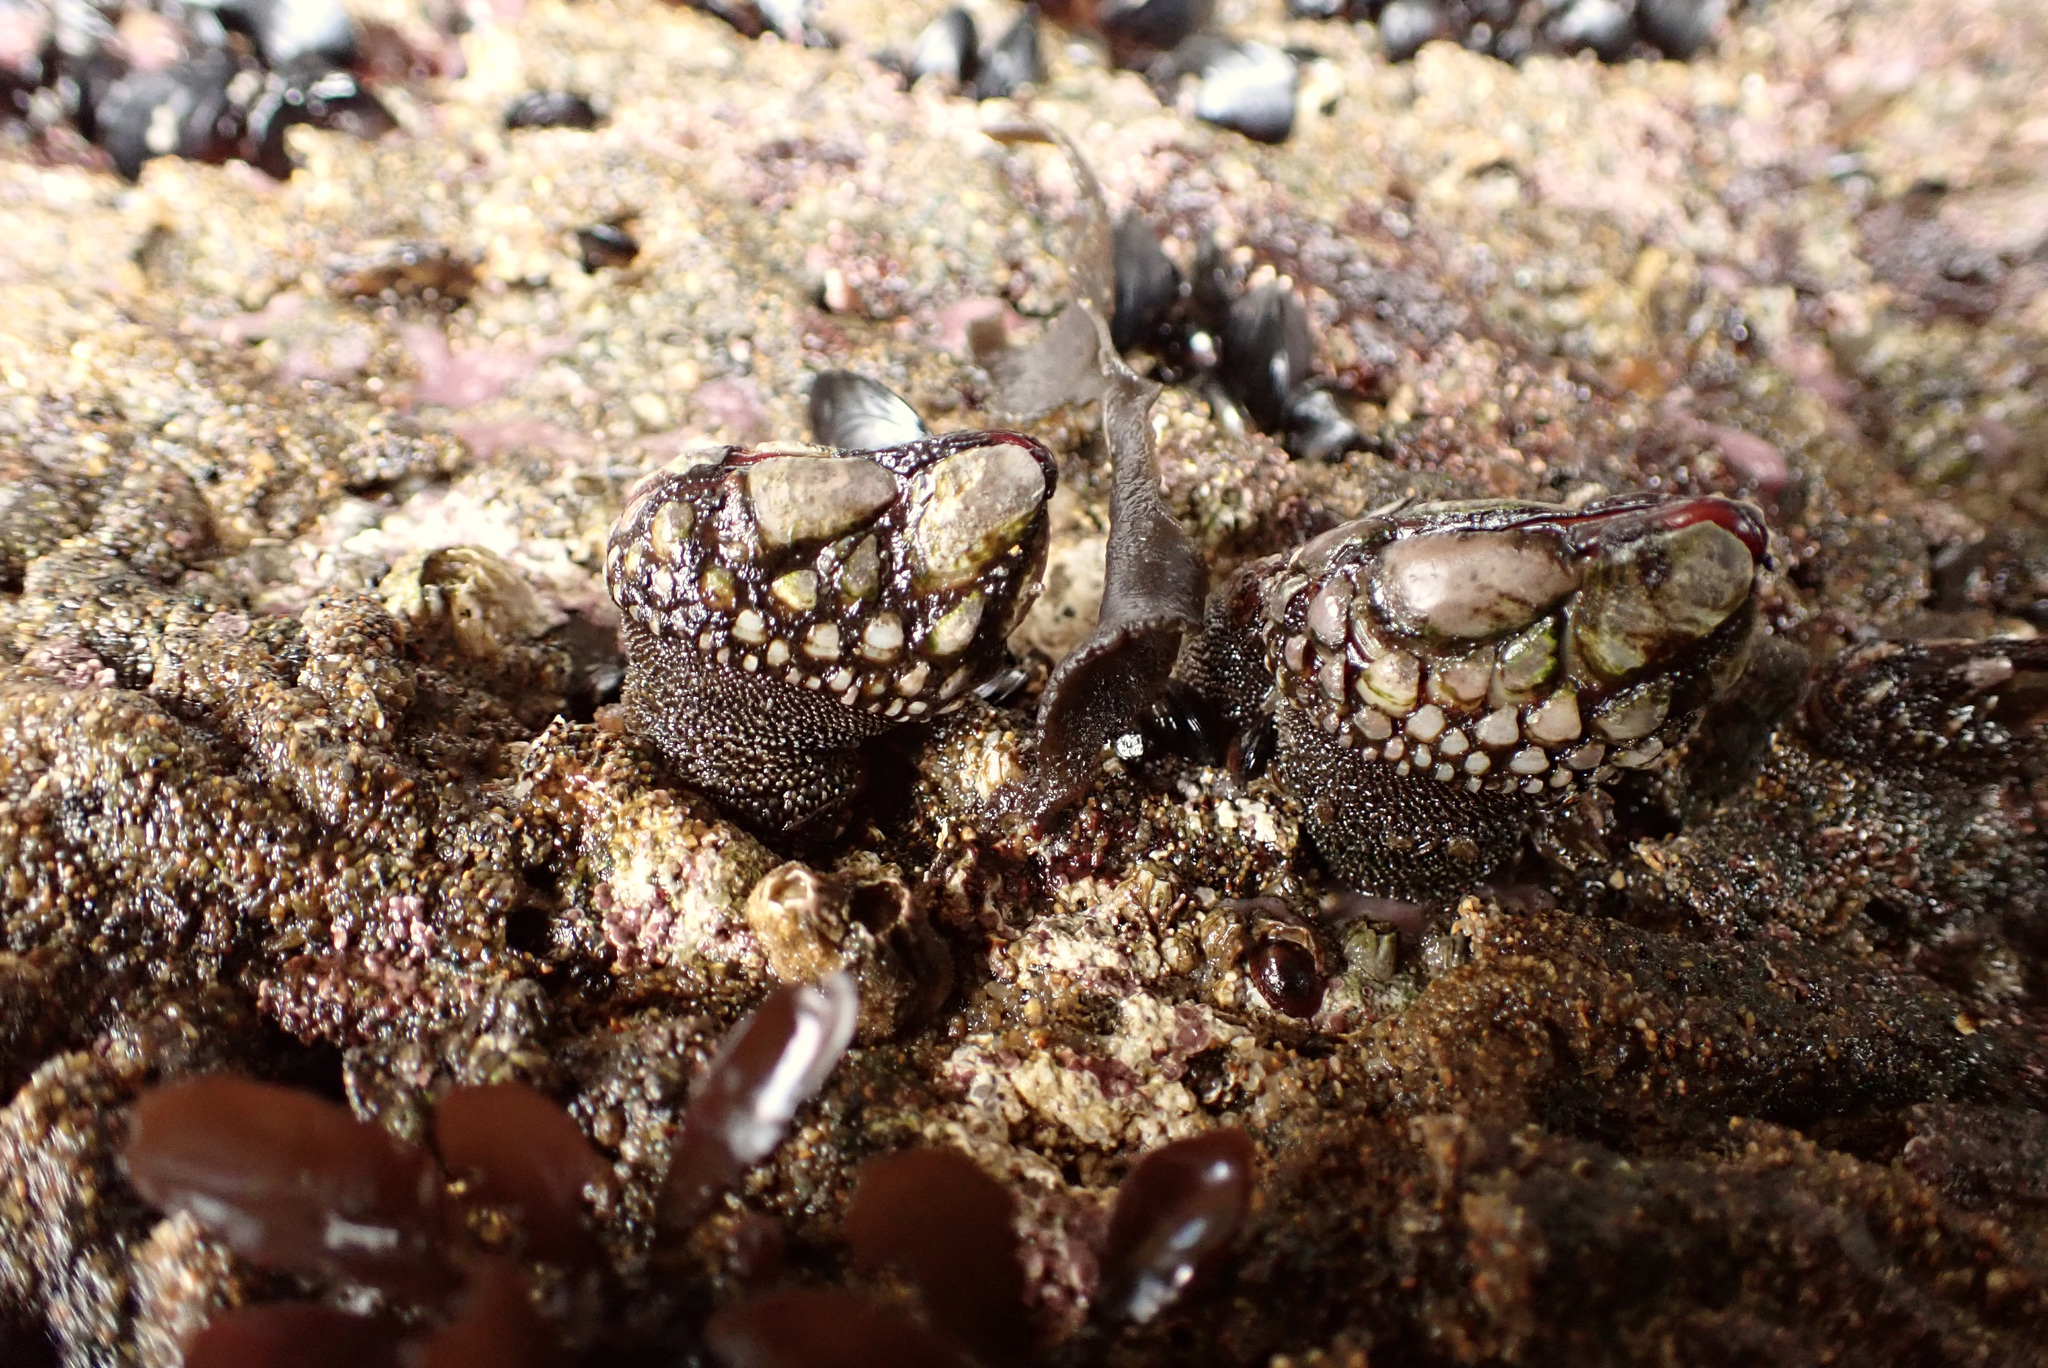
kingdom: Animalia
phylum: Arthropoda
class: Maxillopoda
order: Pedunculata
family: Pollicipedidae
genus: Pollicipes
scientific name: Pollicipes polymerus
